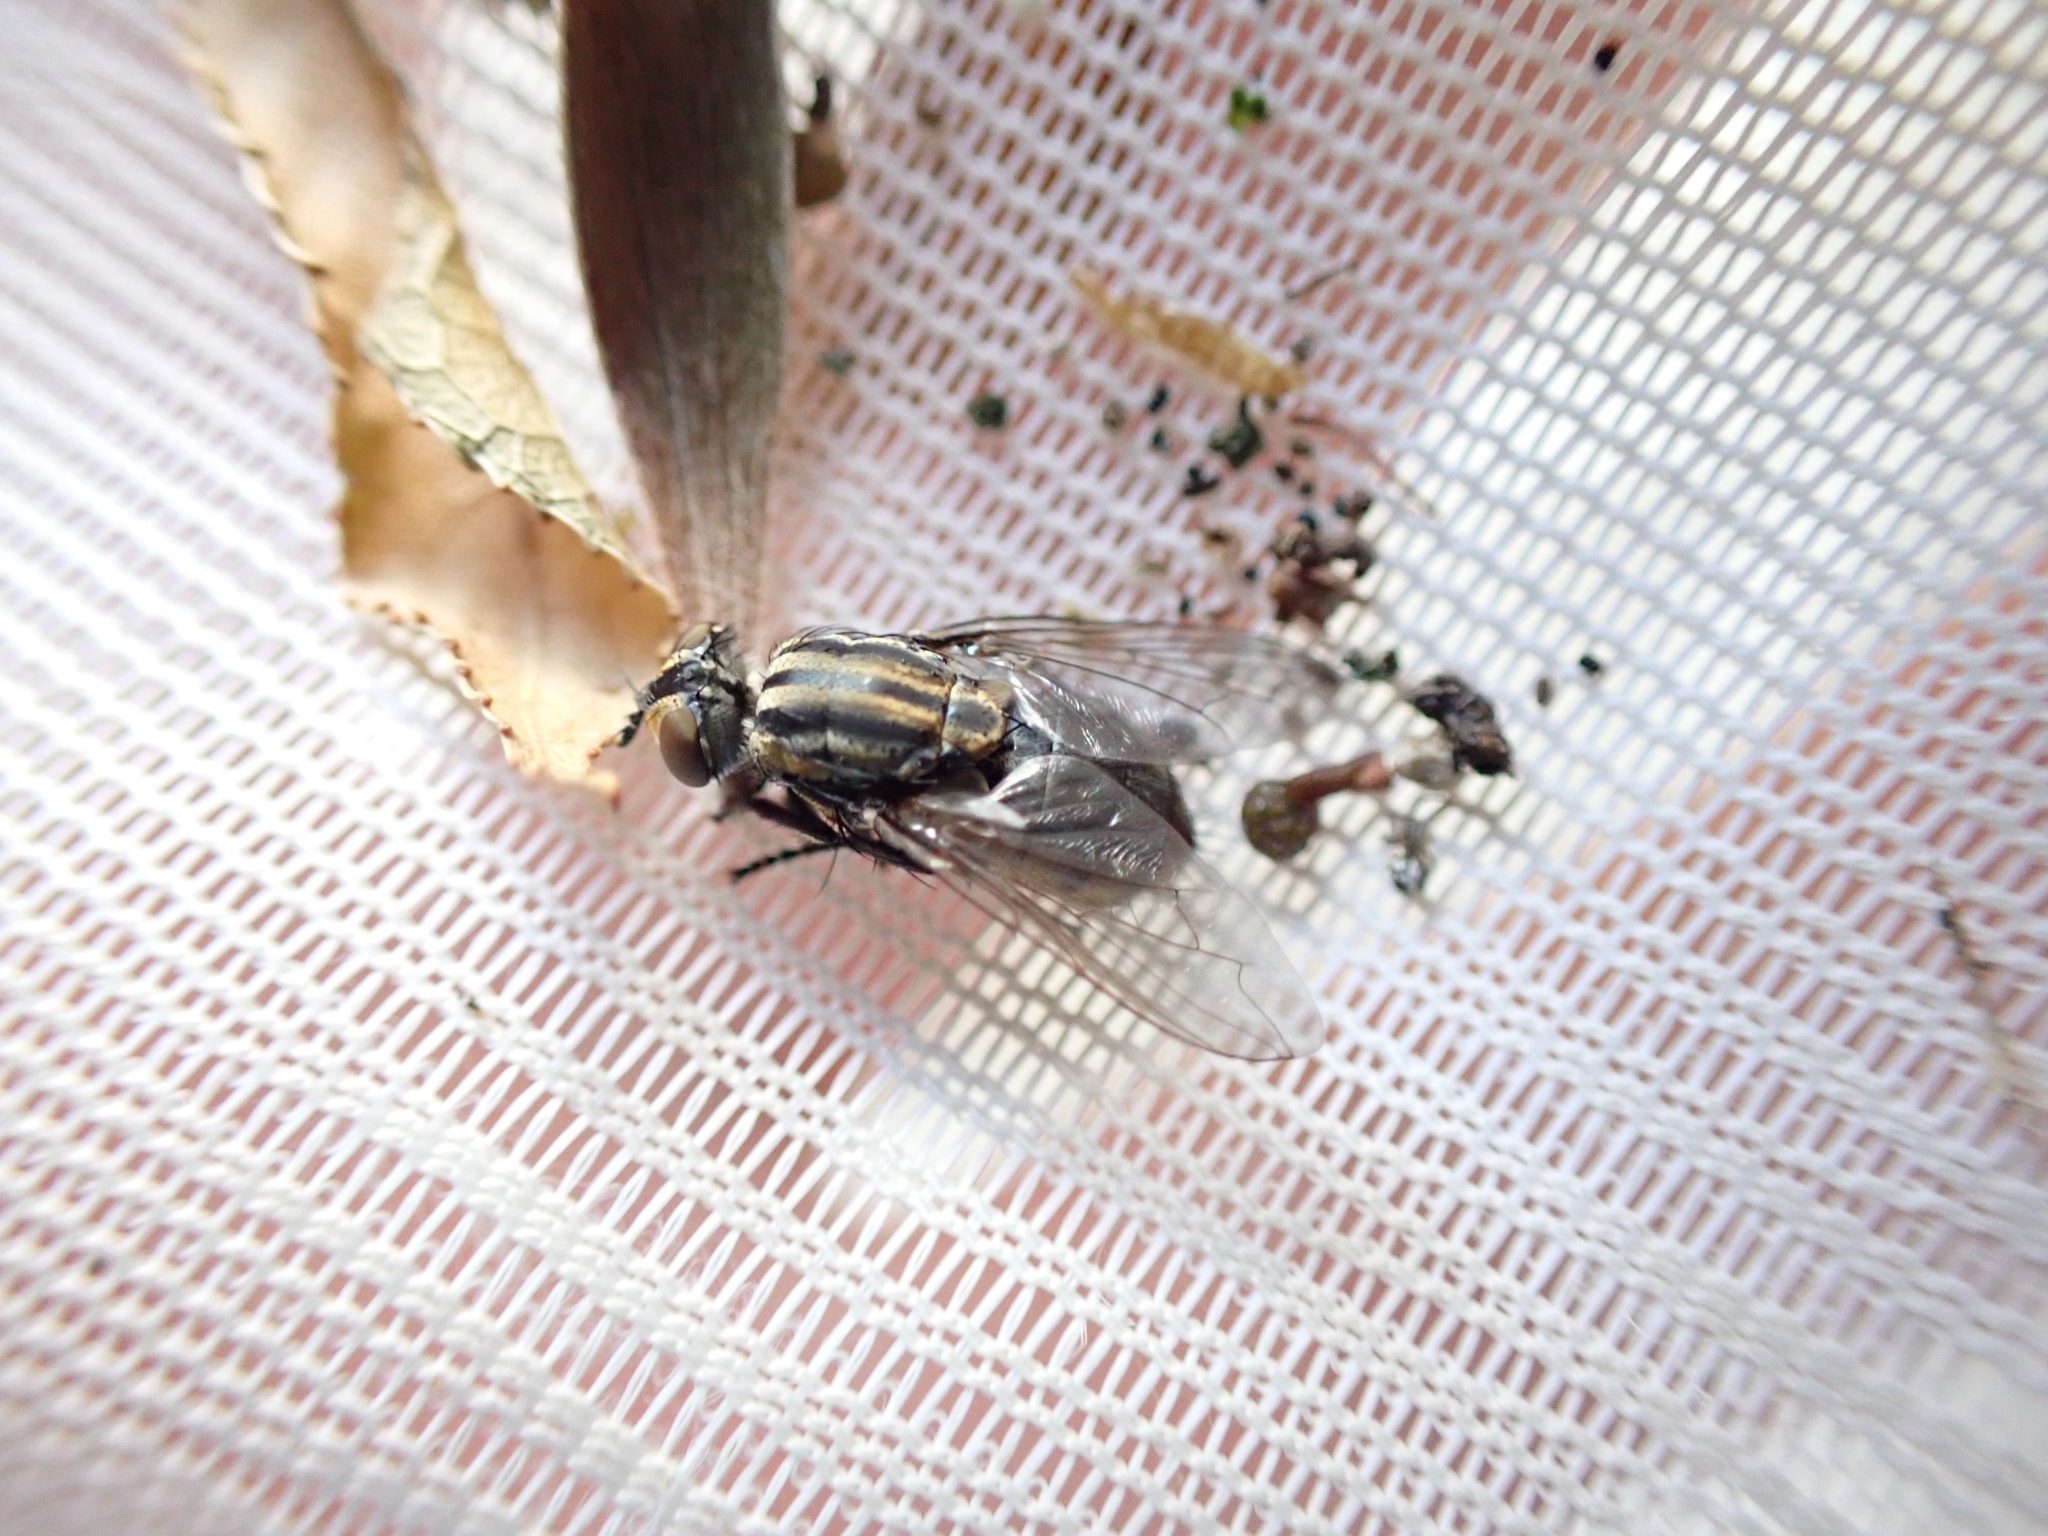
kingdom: Animalia
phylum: Arthropoda
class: Insecta
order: Diptera
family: Sarcophagidae
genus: Oxysarcodexia
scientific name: Oxysarcodexia varia
